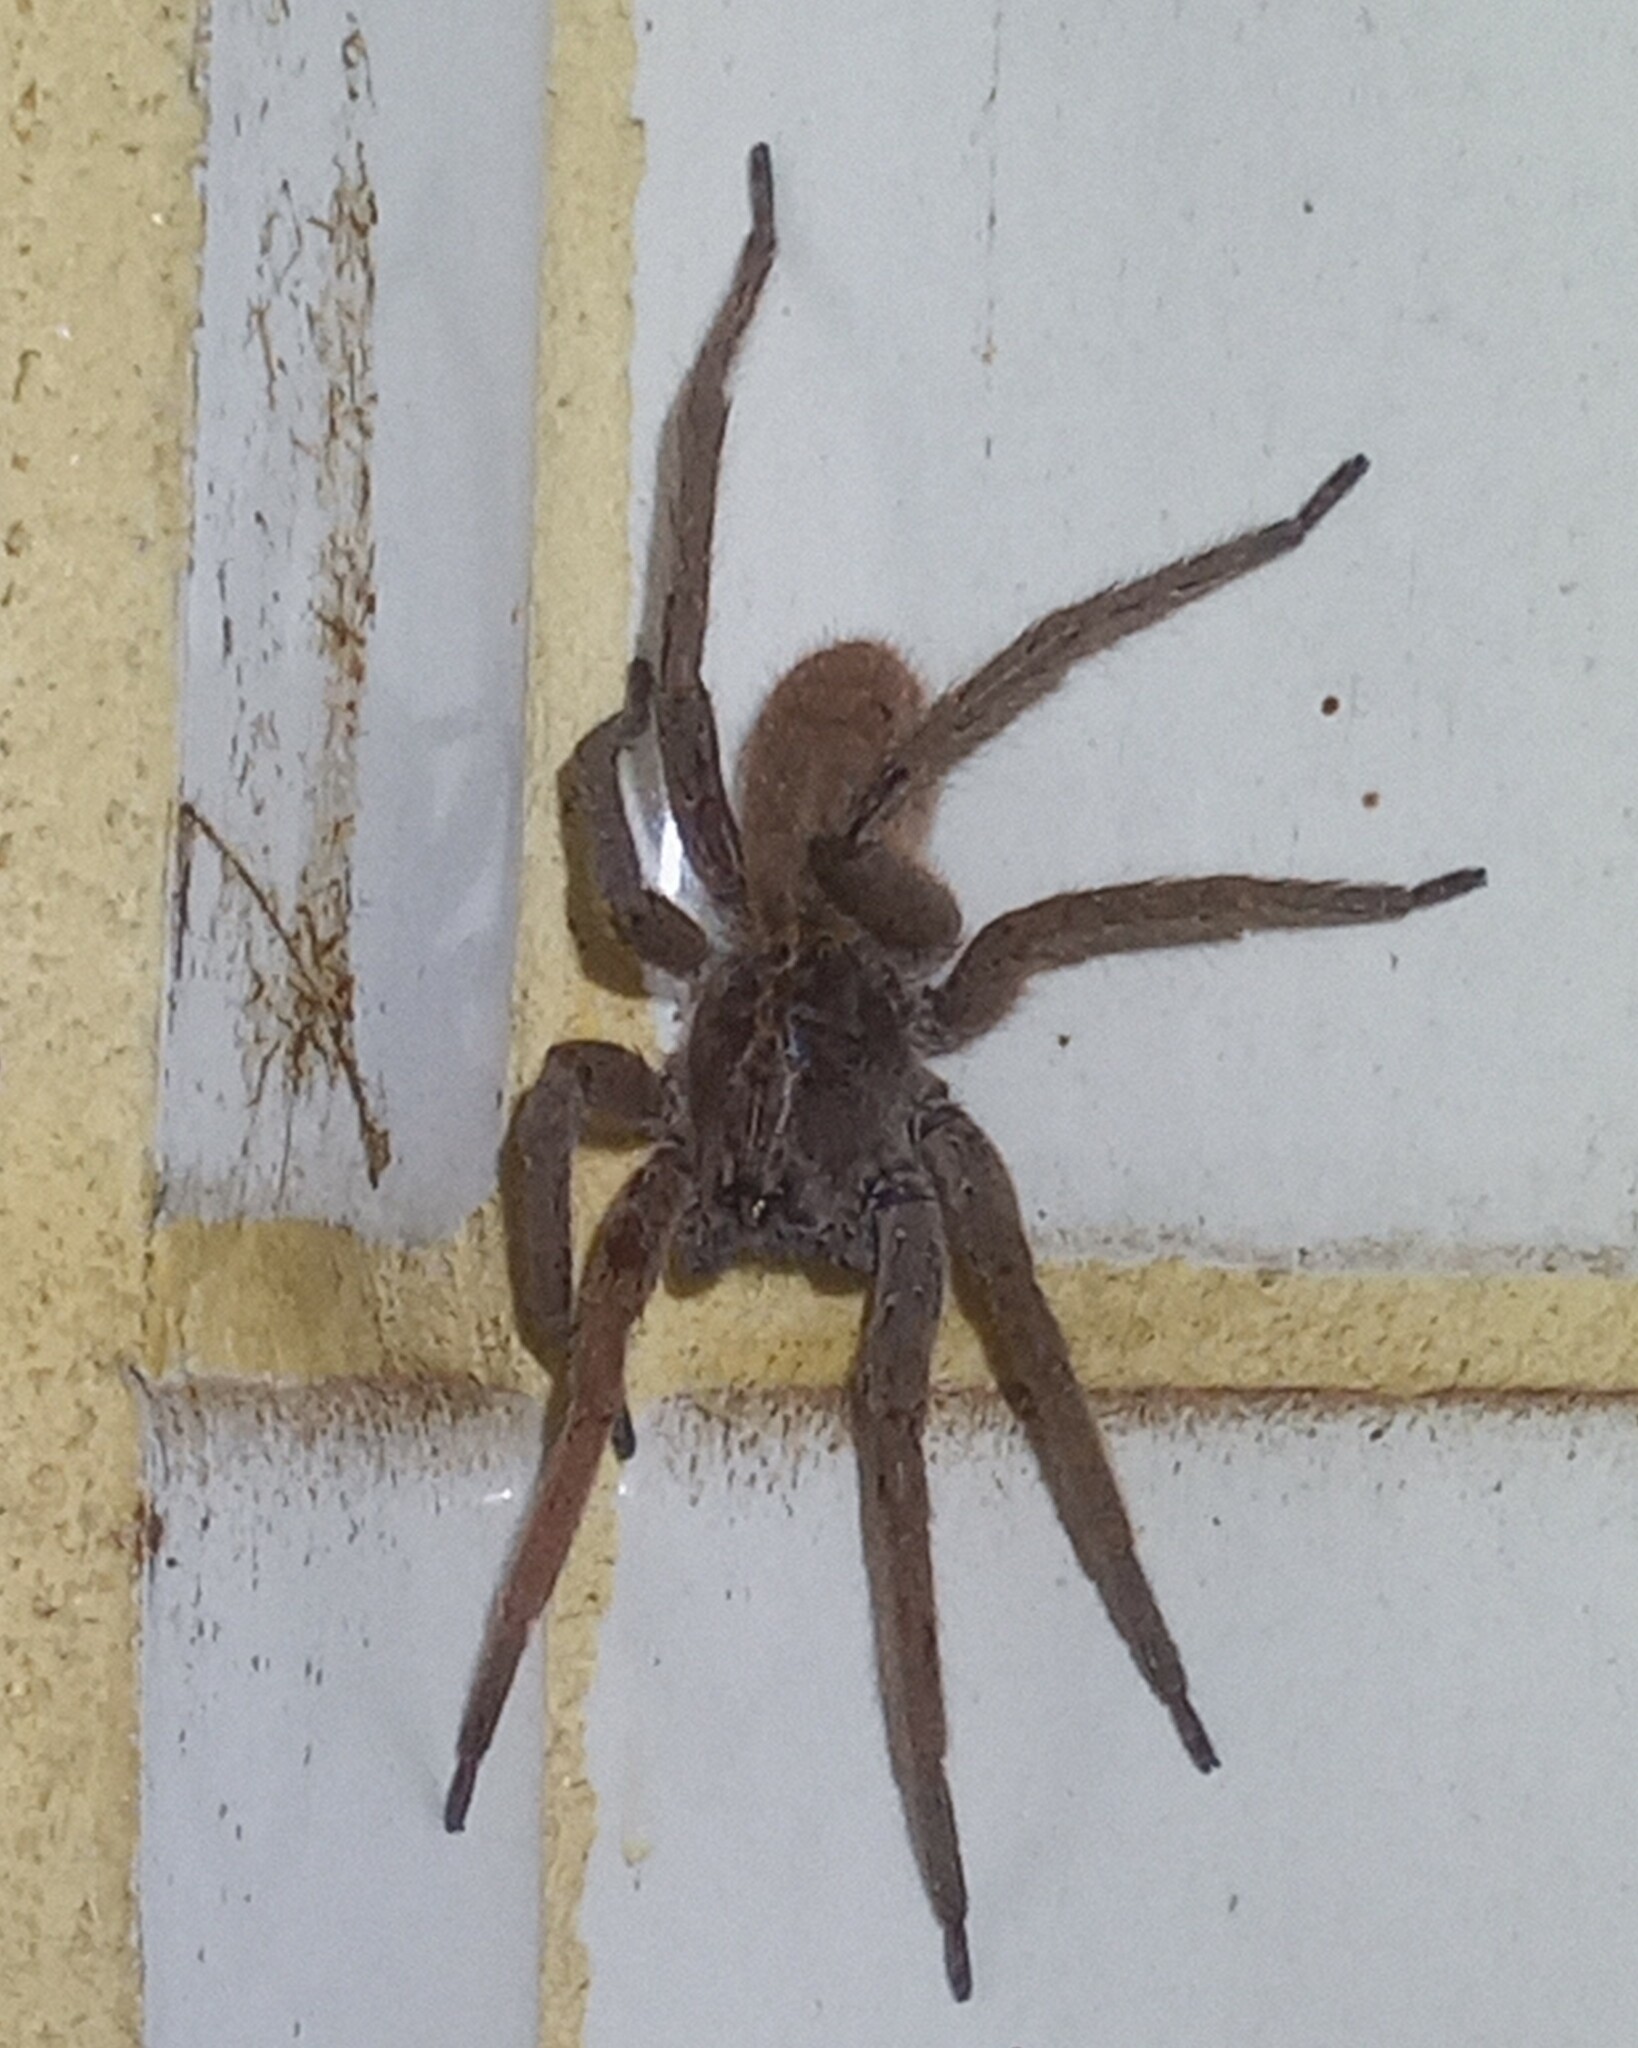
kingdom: Animalia
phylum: Arthropoda
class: Arachnida
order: Araneae
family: Ctenidae
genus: Parabatinga
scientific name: Parabatinga brevipes
